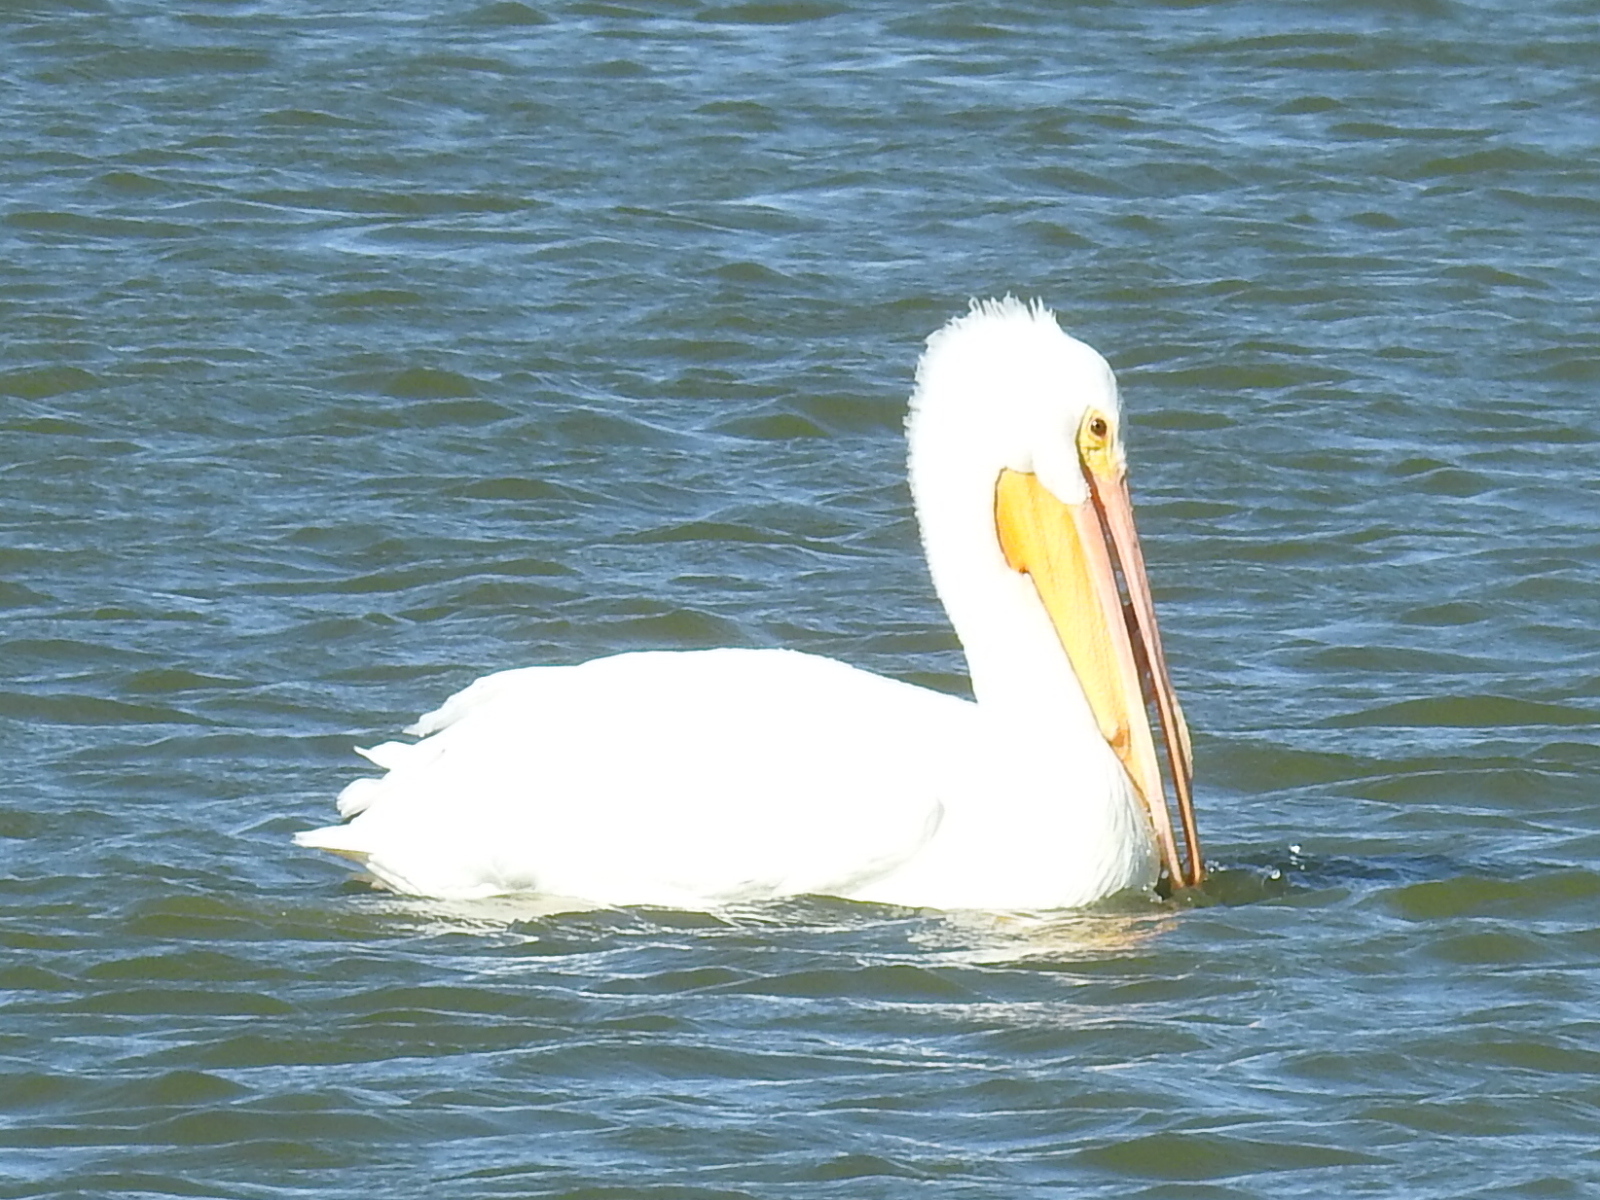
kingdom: Animalia
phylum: Chordata
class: Aves
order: Pelecaniformes
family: Pelecanidae
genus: Pelecanus
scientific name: Pelecanus erythrorhynchos
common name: American white pelican
